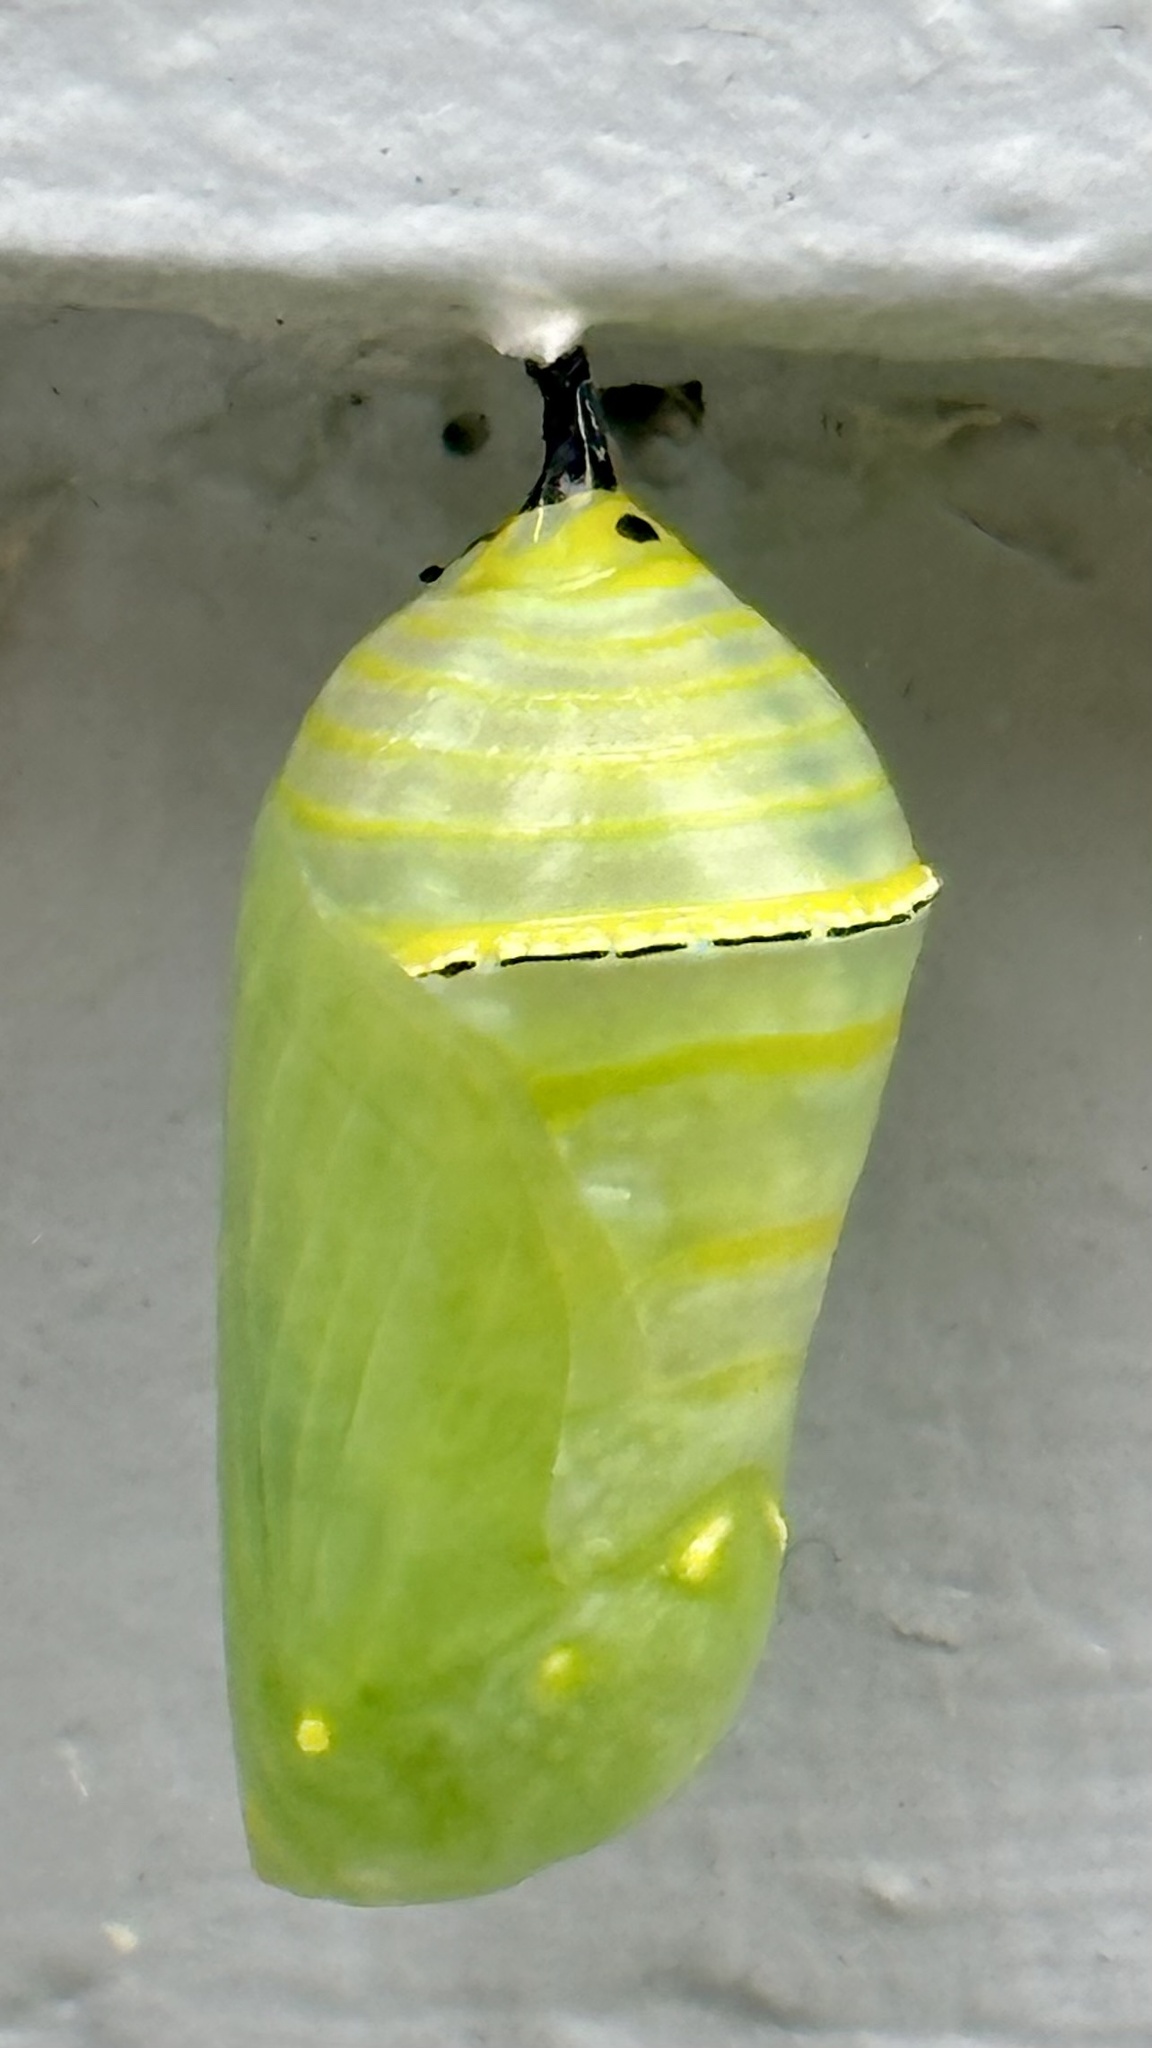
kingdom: Animalia
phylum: Arthropoda
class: Insecta
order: Lepidoptera
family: Nymphalidae
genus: Danaus
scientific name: Danaus plexippus
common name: Monarch
